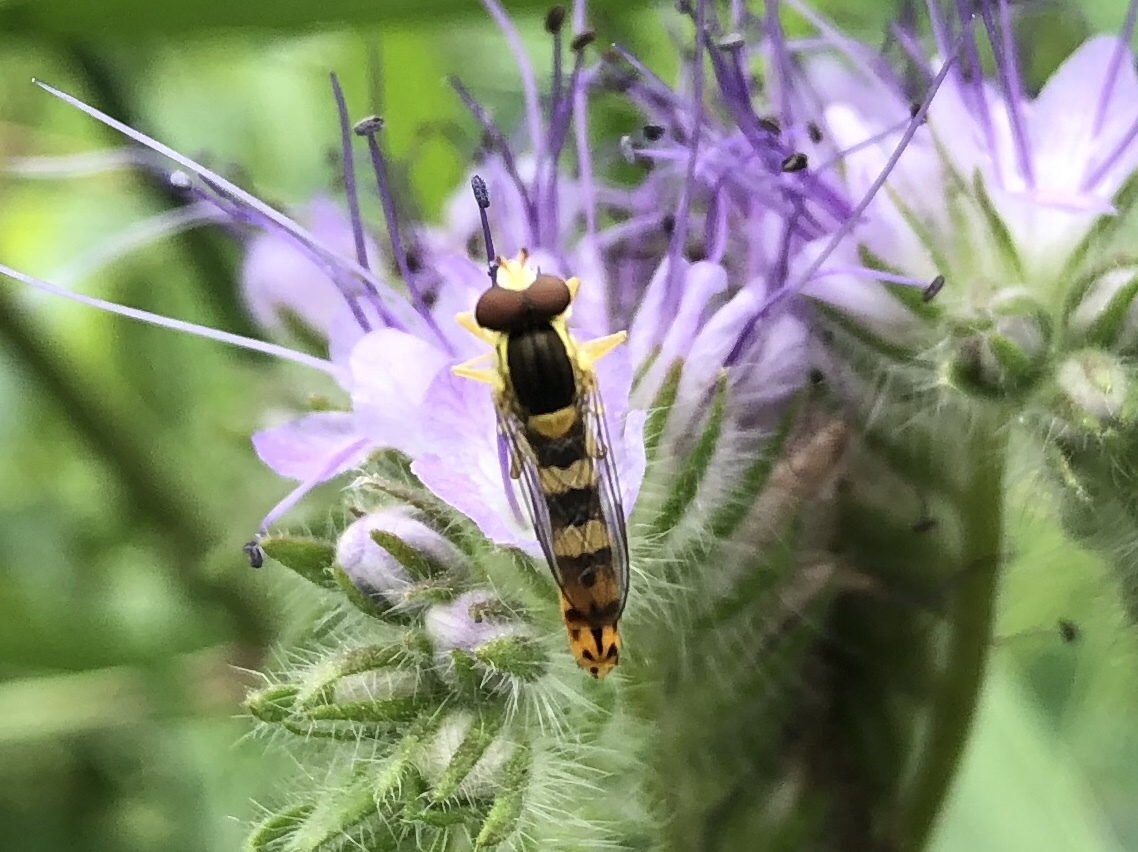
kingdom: Animalia
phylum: Arthropoda
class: Insecta
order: Diptera
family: Syrphidae
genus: Sphaerophoria
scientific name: Sphaerophoria scripta
